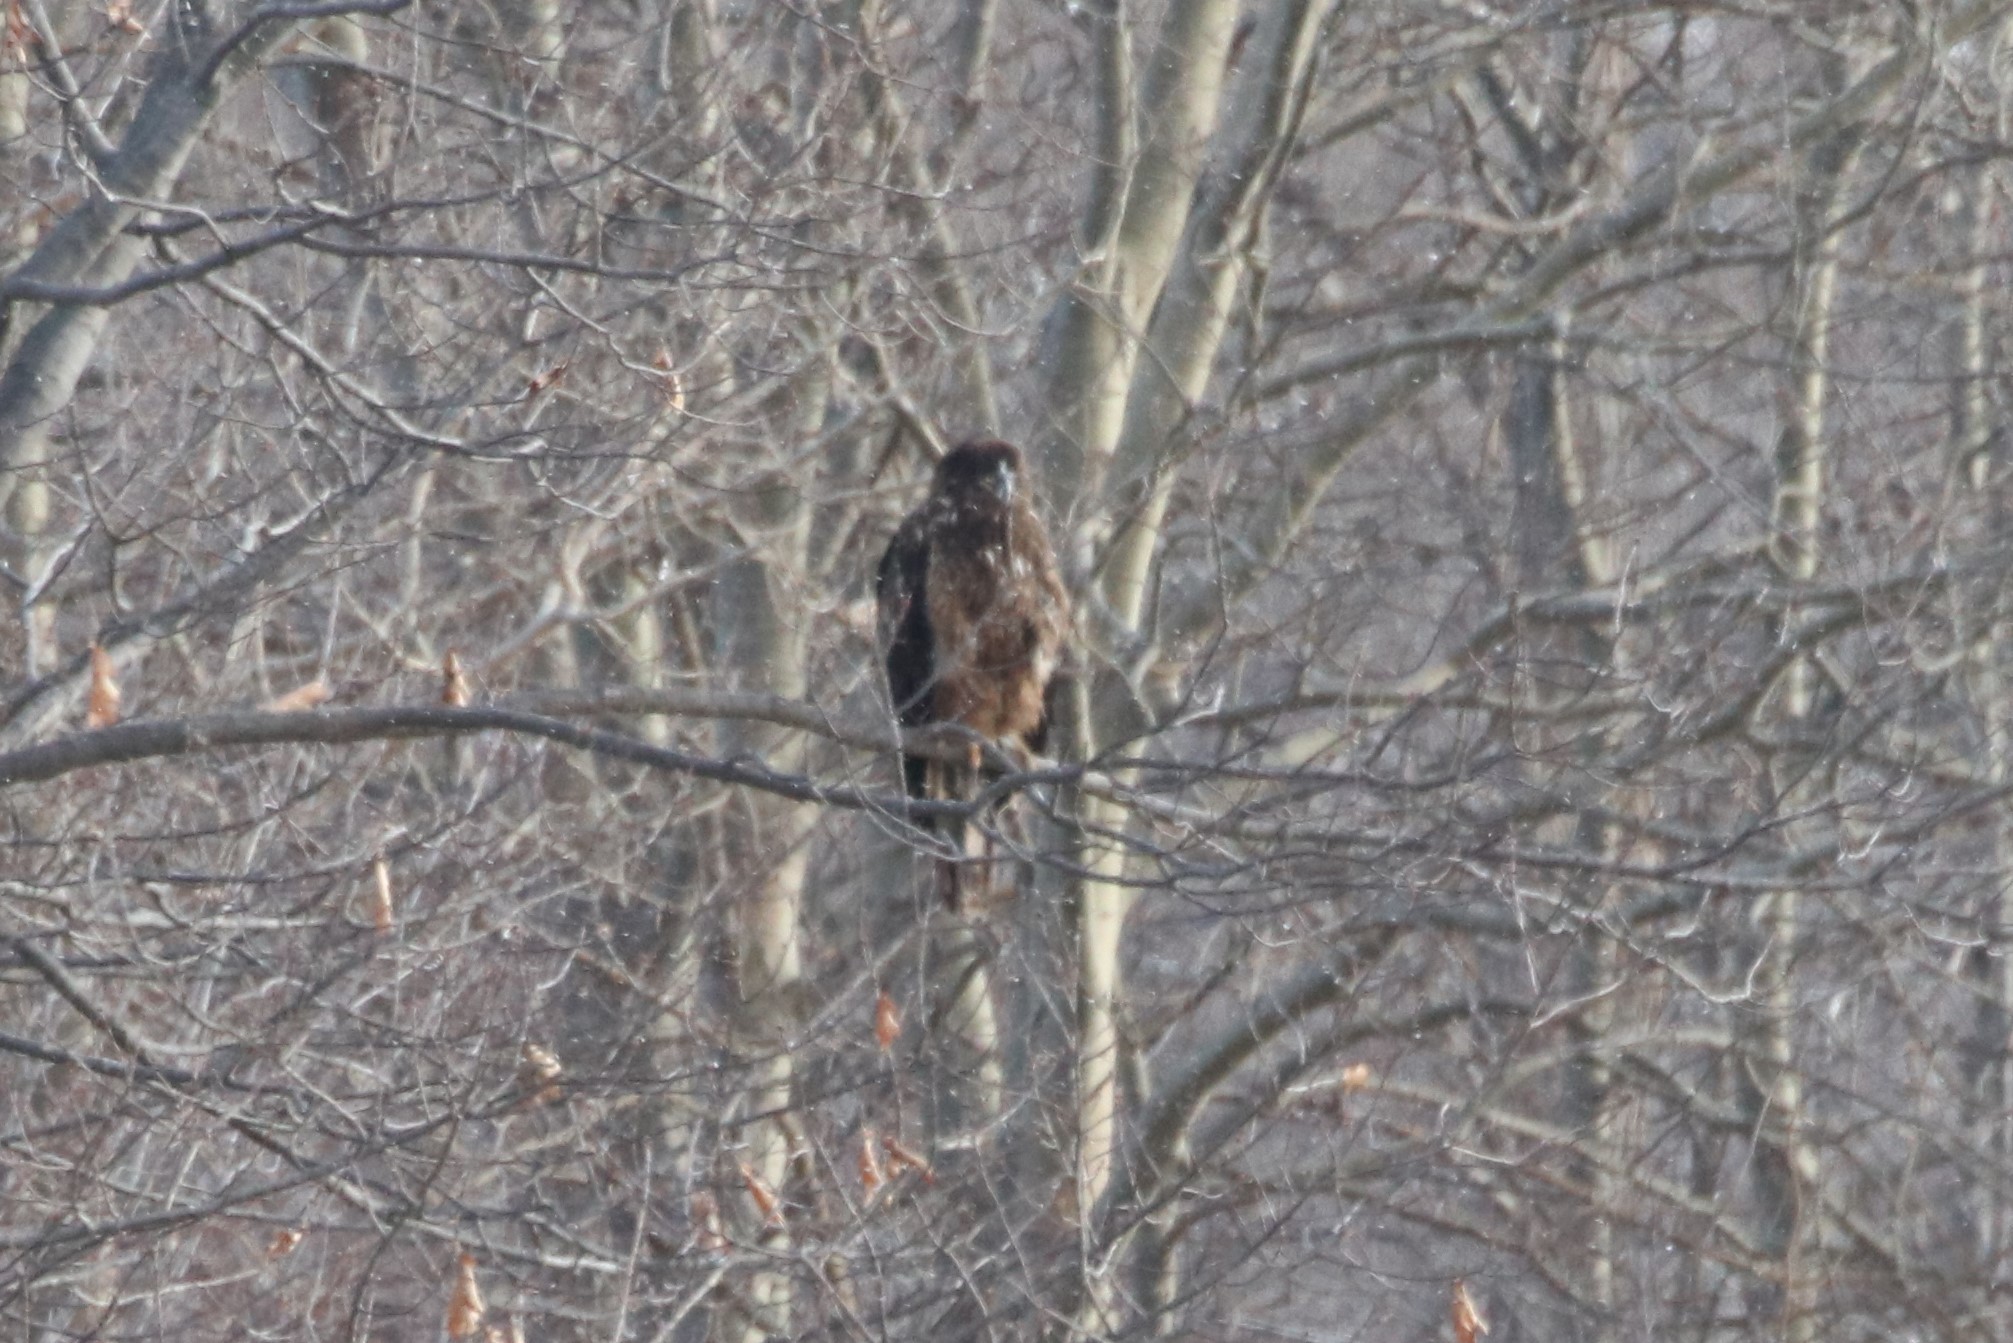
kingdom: Animalia
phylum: Chordata
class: Aves
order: Accipitriformes
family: Accipitridae
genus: Haliaeetus
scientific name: Haliaeetus leucocephalus
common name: Bald eagle
